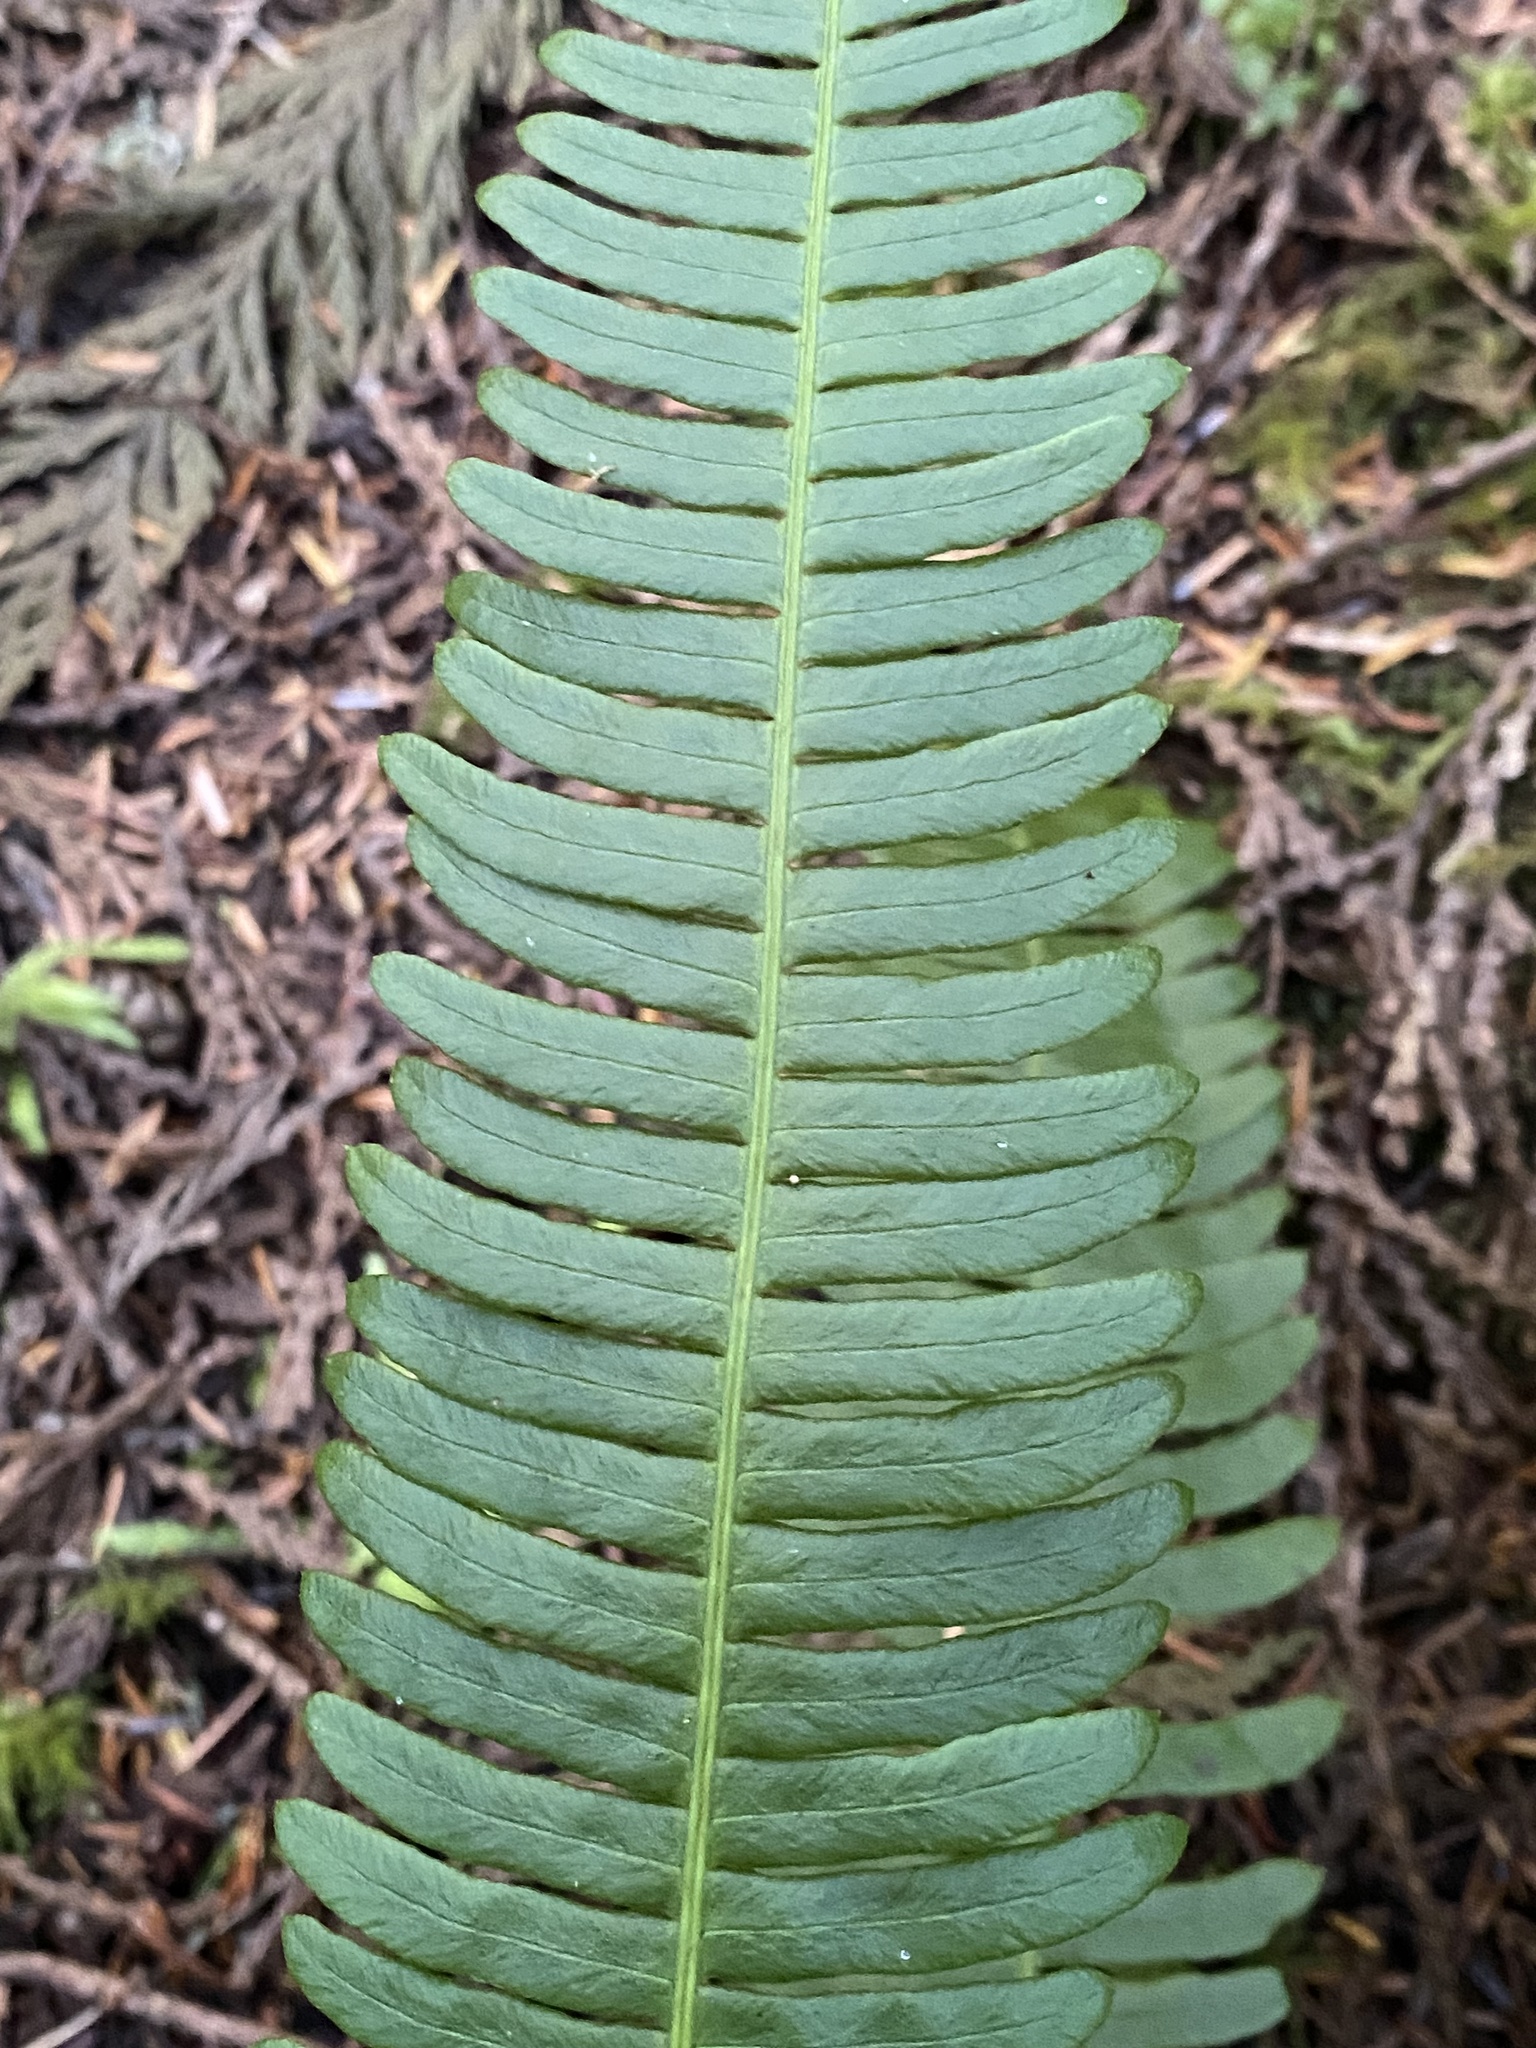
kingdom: Plantae
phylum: Tracheophyta
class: Polypodiopsida
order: Polypodiales
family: Blechnaceae
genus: Struthiopteris
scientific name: Struthiopteris spicant
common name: Deer fern
